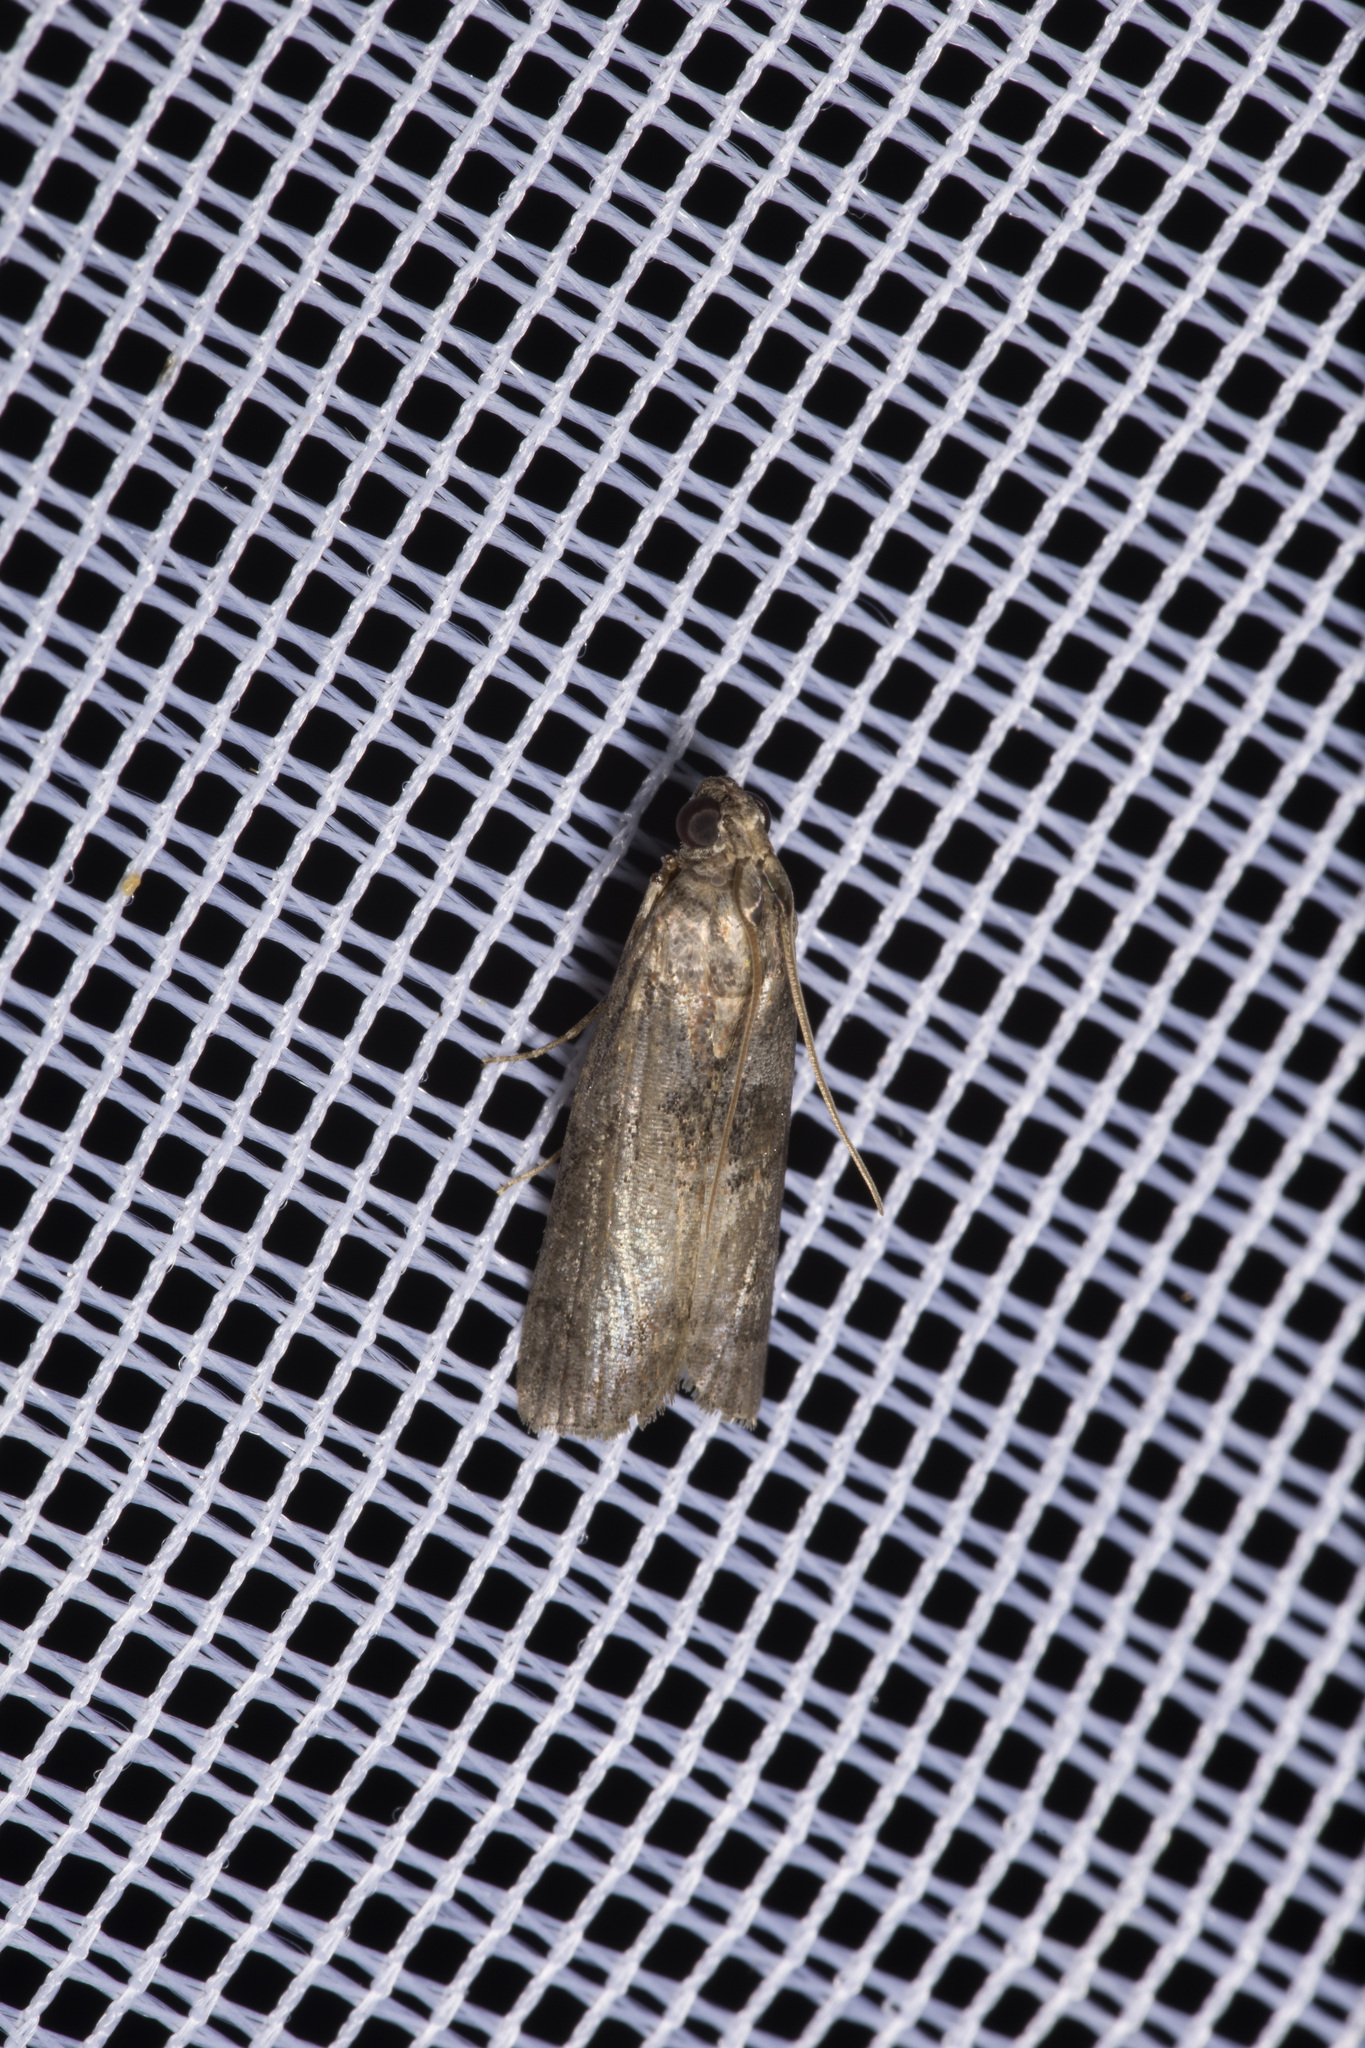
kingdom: Animalia
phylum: Arthropoda
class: Insecta
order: Lepidoptera
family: Pyralidae
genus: Phycita
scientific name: Phycita roborella
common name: Dotted oak knot-horn
